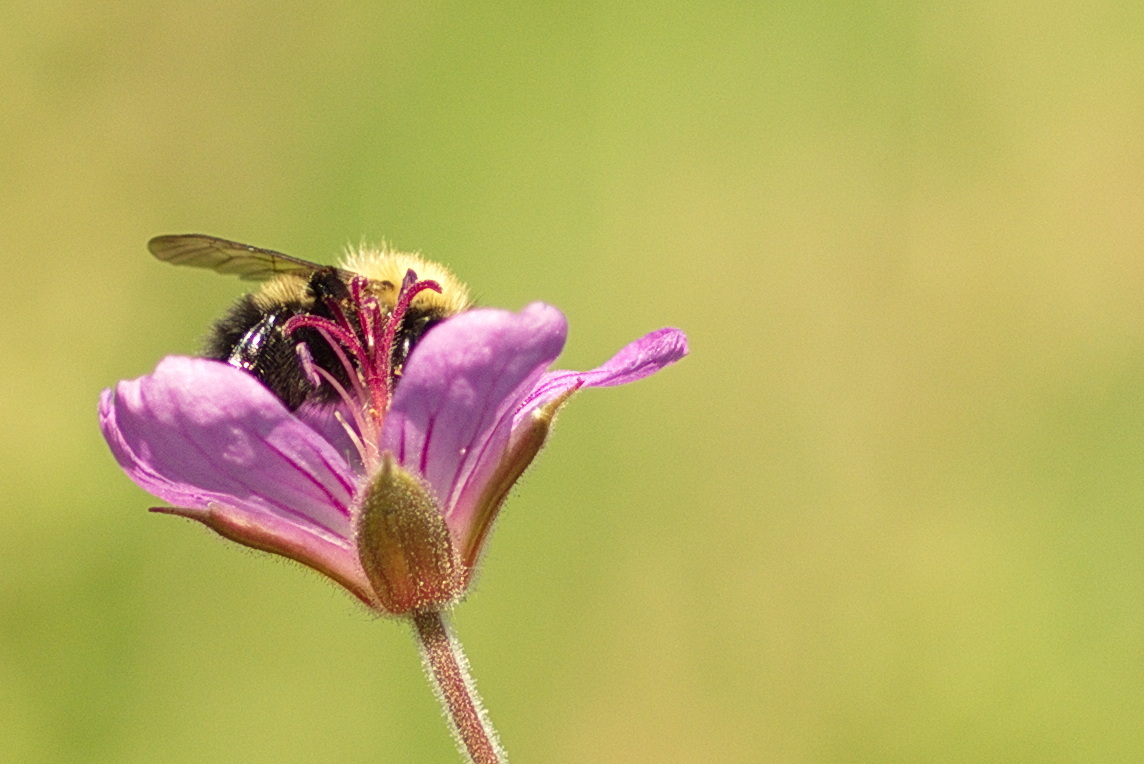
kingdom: Animalia
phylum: Arthropoda
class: Insecta
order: Hymenoptera
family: Apidae
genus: Bombus
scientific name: Bombus perplexus
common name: Confusing bumble bee
